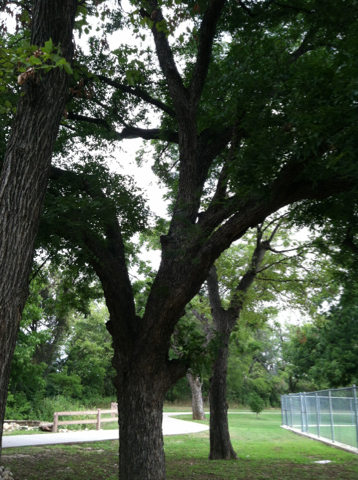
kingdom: Plantae
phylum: Tracheophyta
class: Magnoliopsida
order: Fagales
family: Juglandaceae
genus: Carya
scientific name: Carya illinoinensis
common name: Pecan
